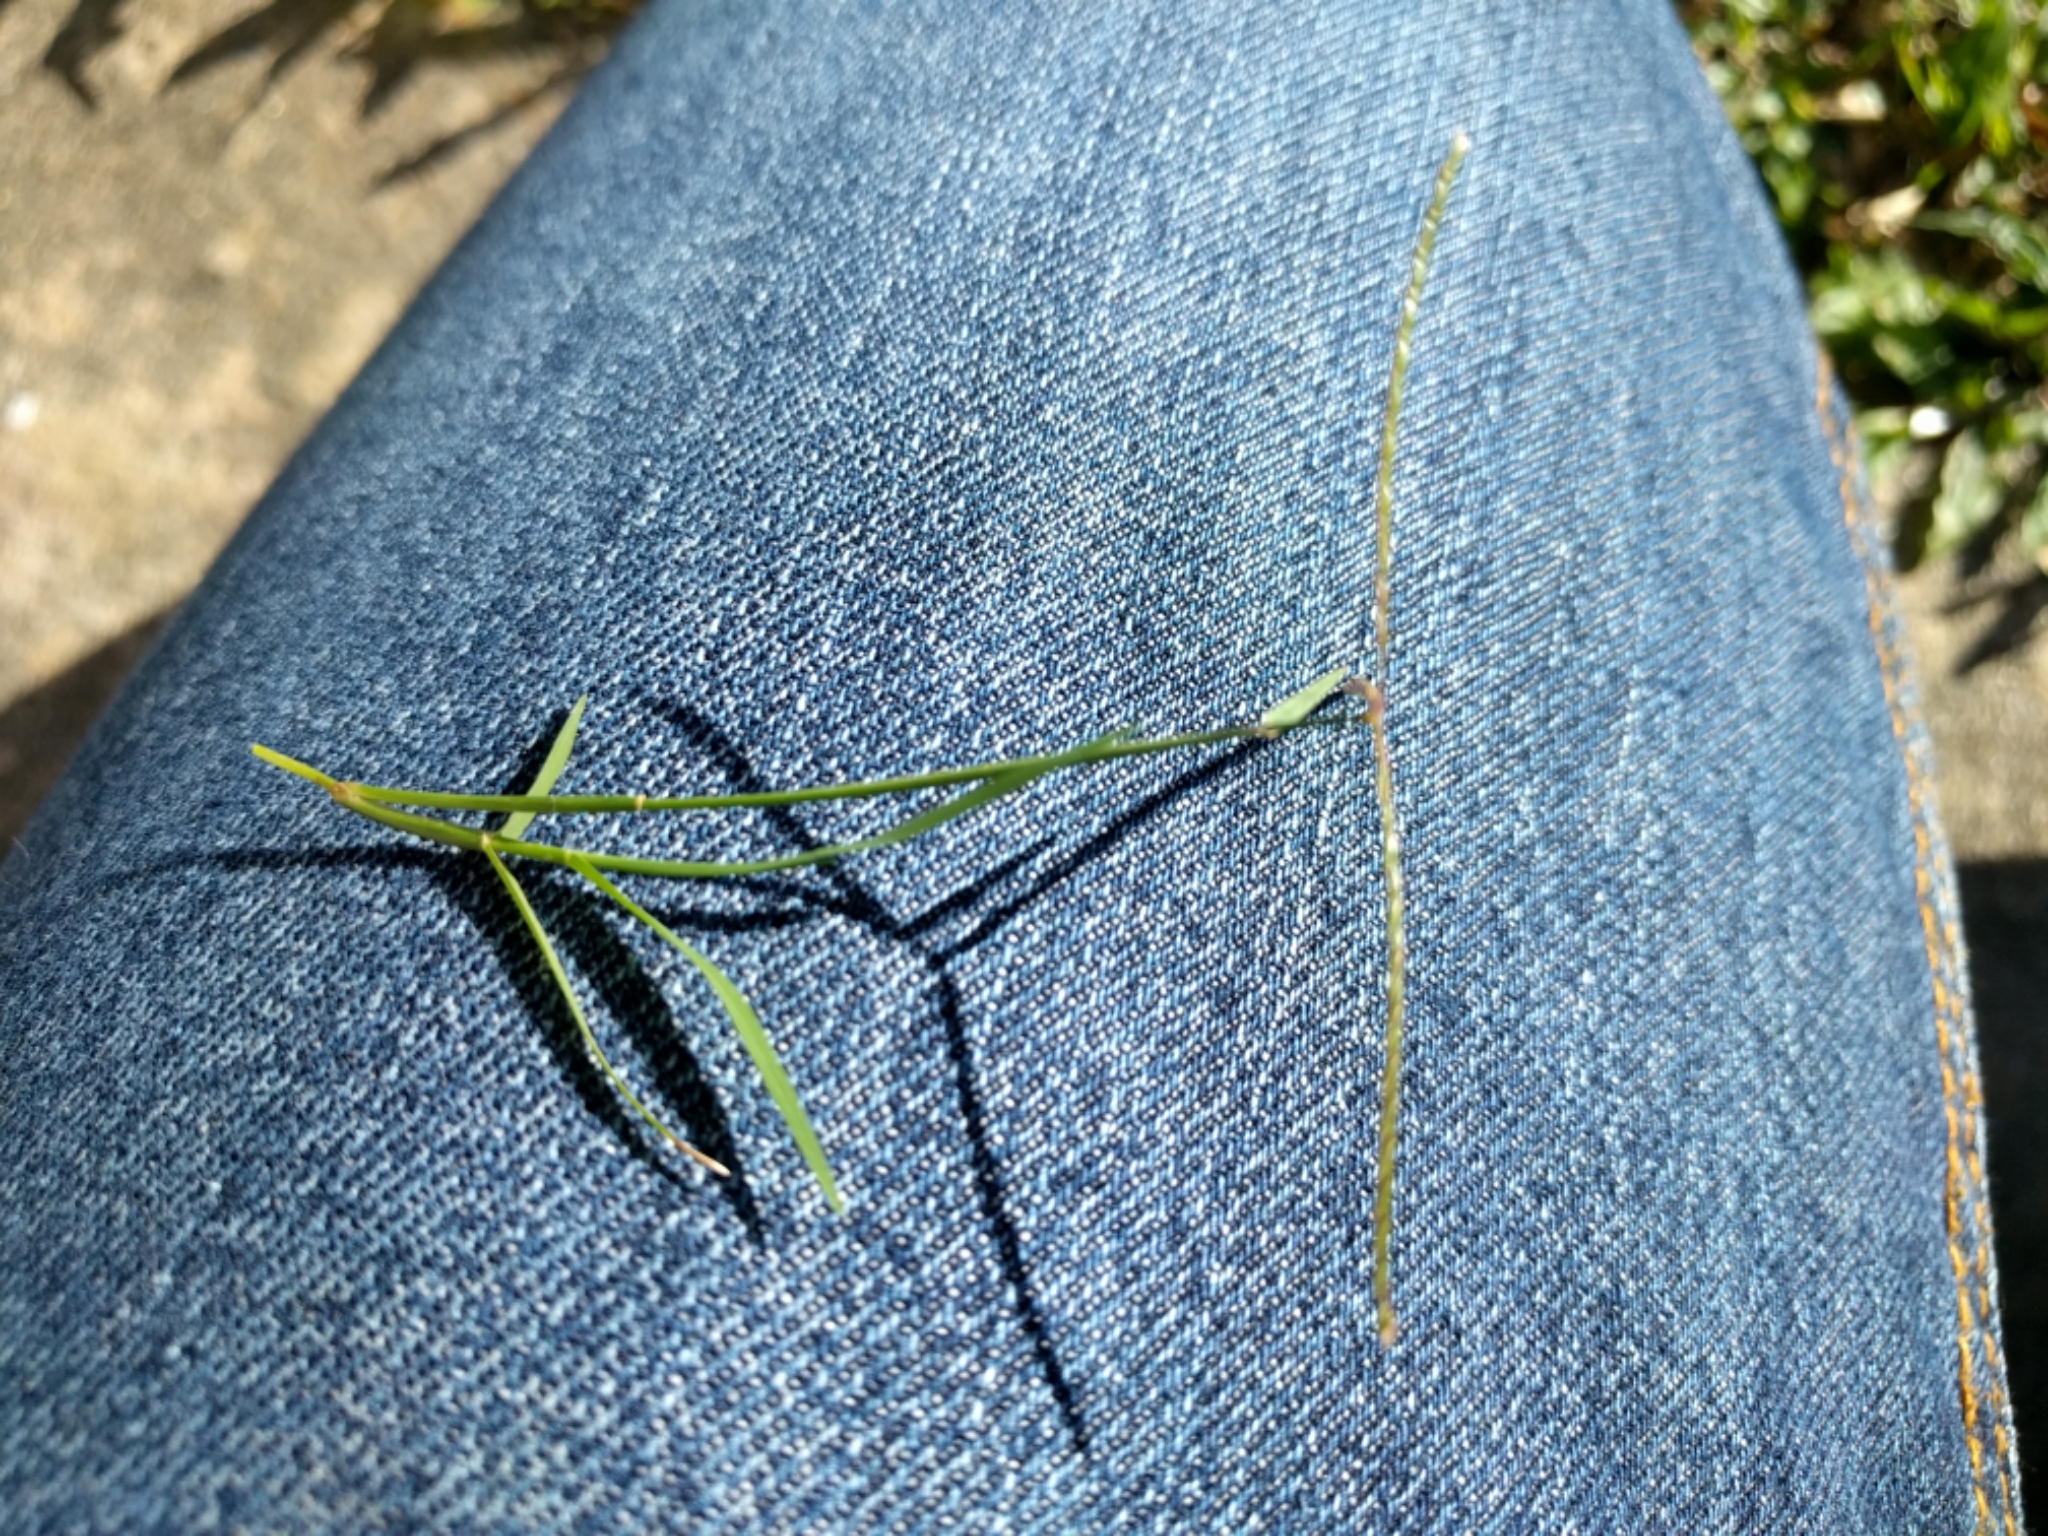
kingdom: Plantae
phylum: Tracheophyta
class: Liliopsida
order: Poales
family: Poaceae
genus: Cynodon
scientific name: Cynodon dactylon
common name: Bermuda grass
